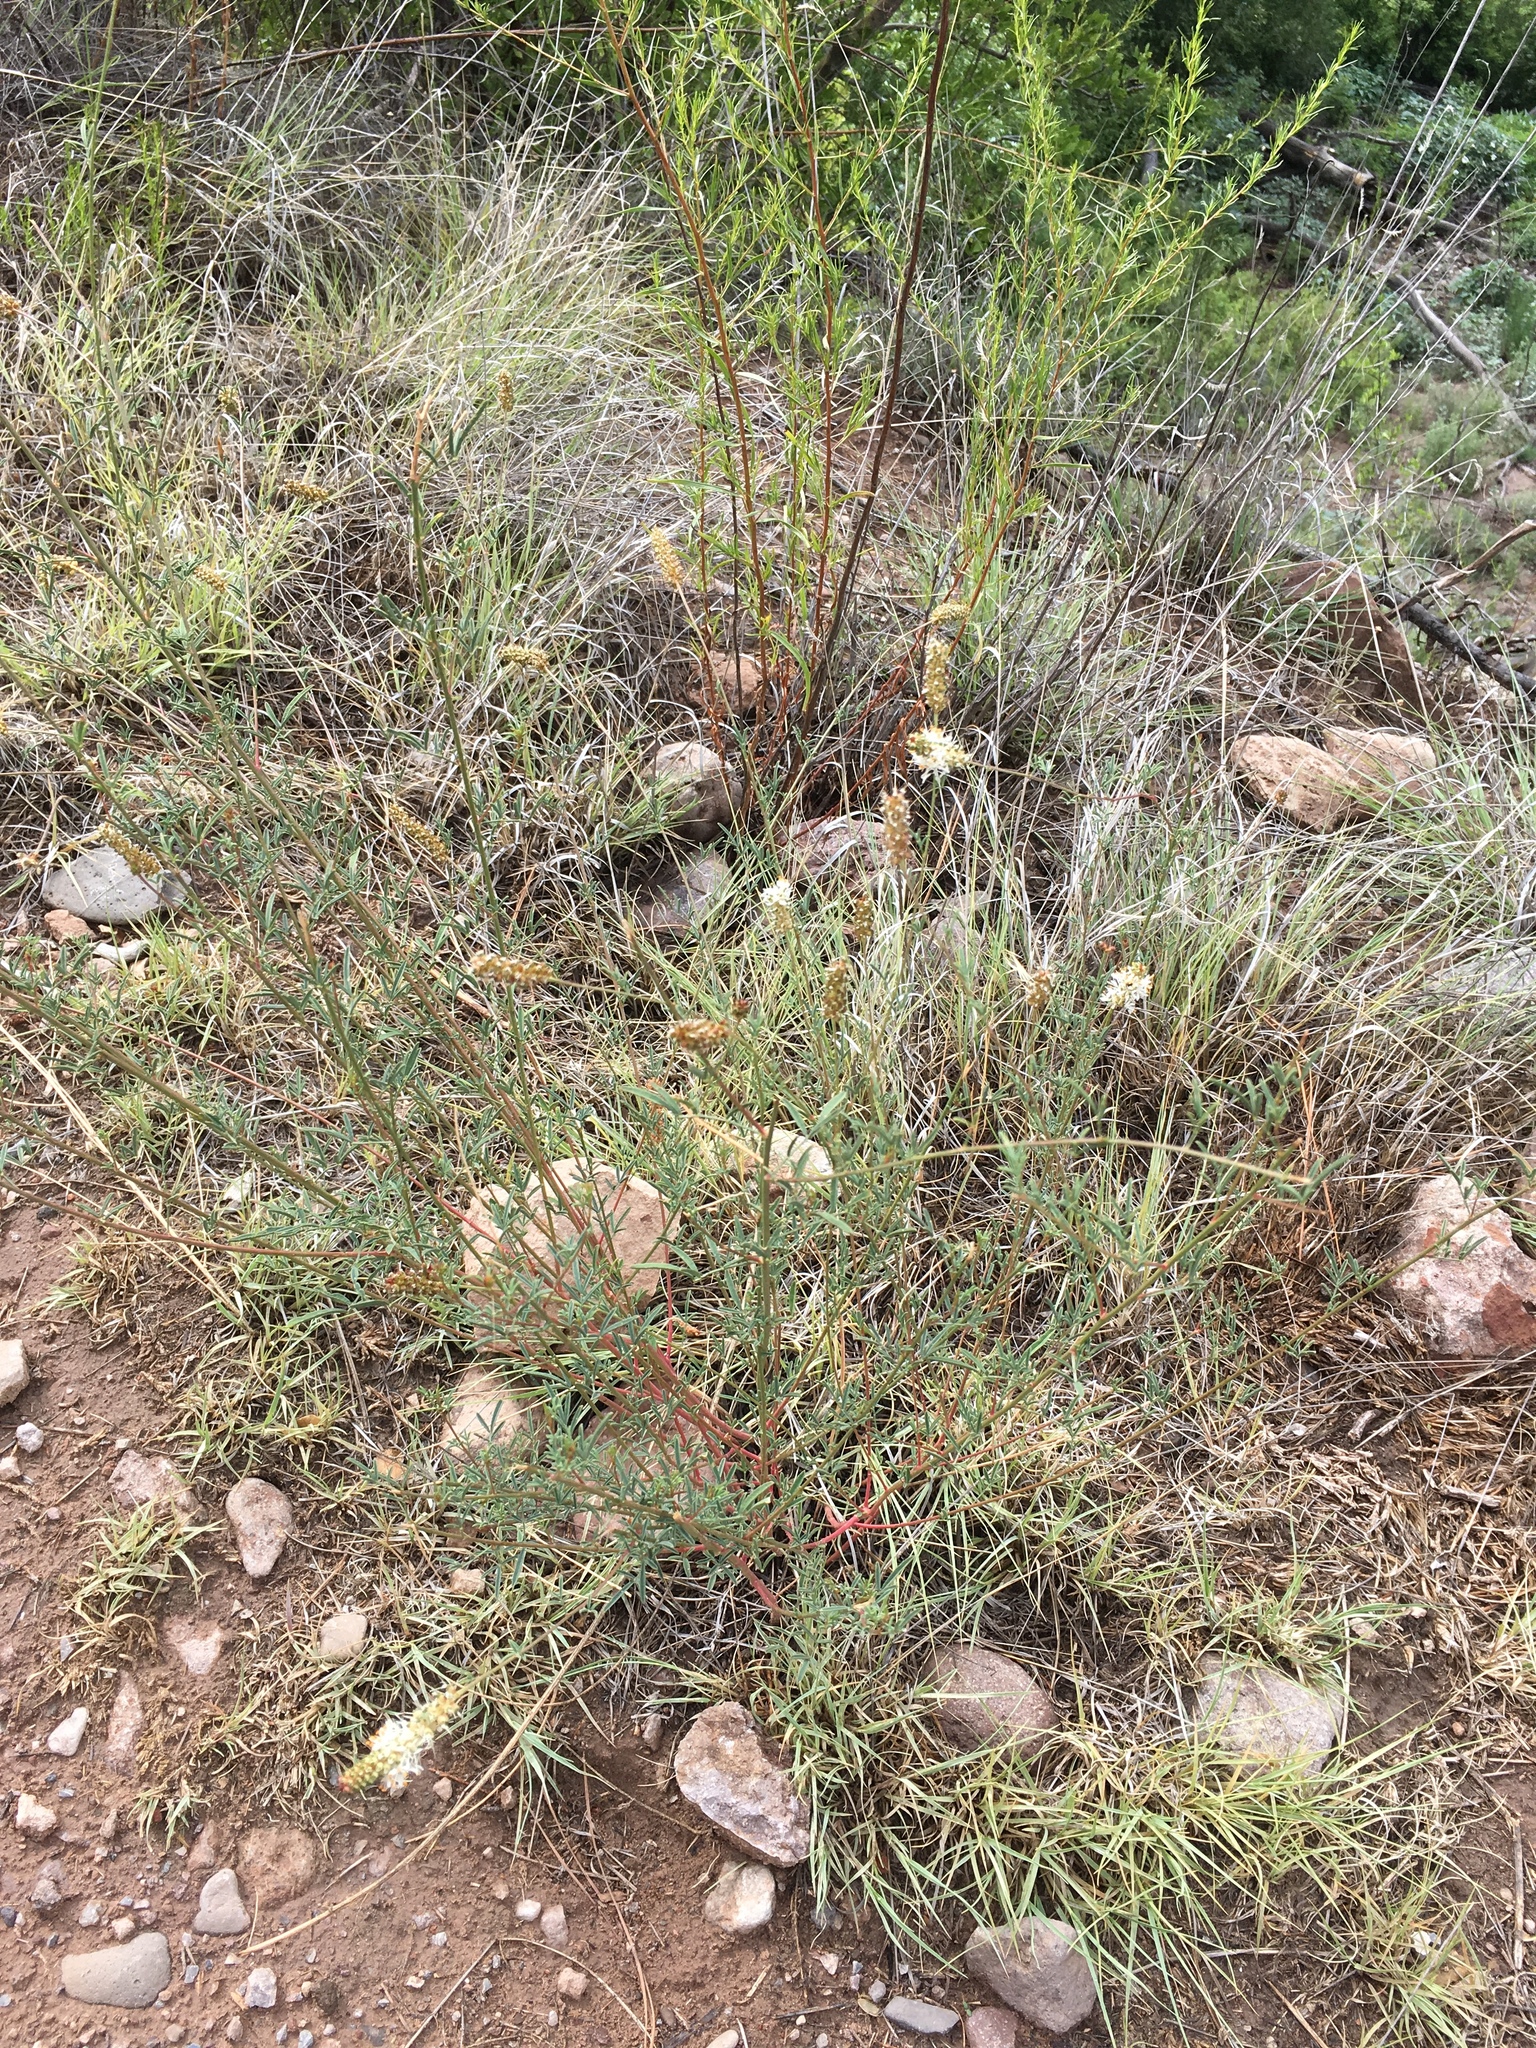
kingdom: Plantae
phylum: Tracheophyta
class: Magnoliopsida
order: Fabales
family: Fabaceae
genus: Dalea
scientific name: Dalea candida
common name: White prairie-clover
